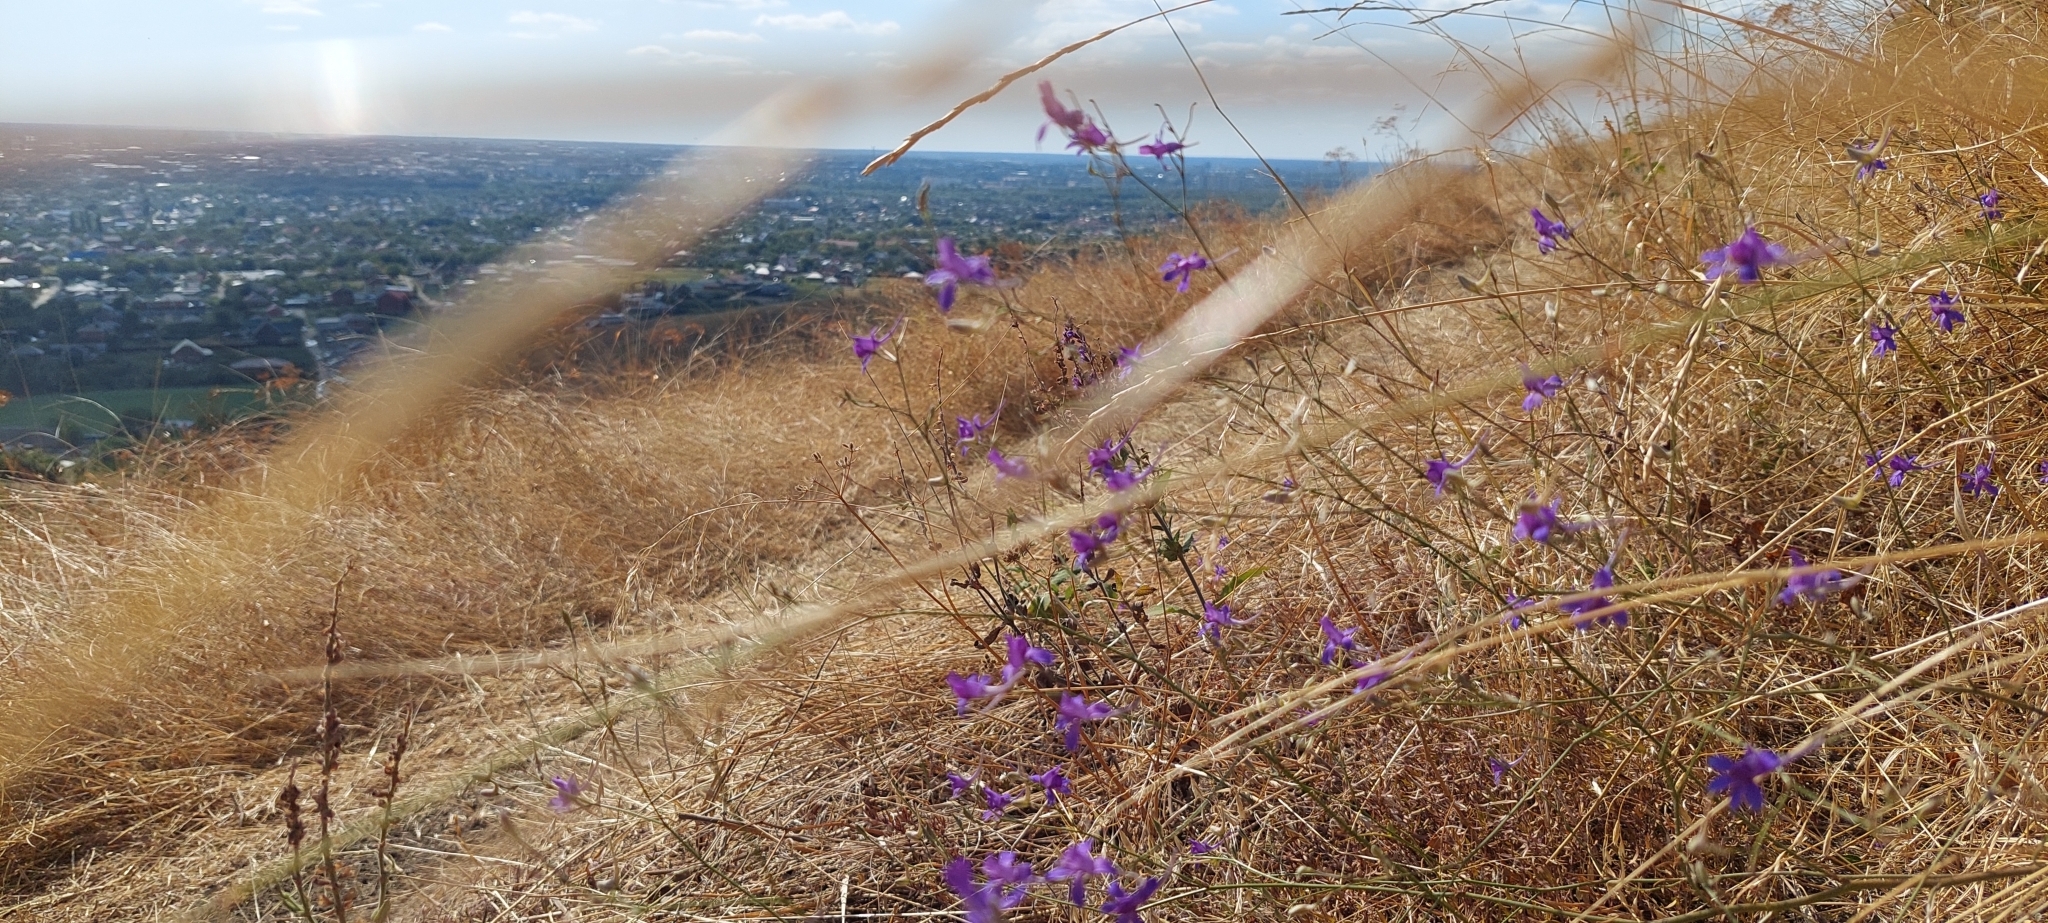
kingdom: Plantae
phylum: Tracheophyta
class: Magnoliopsida
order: Ranunculales
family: Ranunculaceae
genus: Delphinium
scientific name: Delphinium consolida
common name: Branching larkspur
